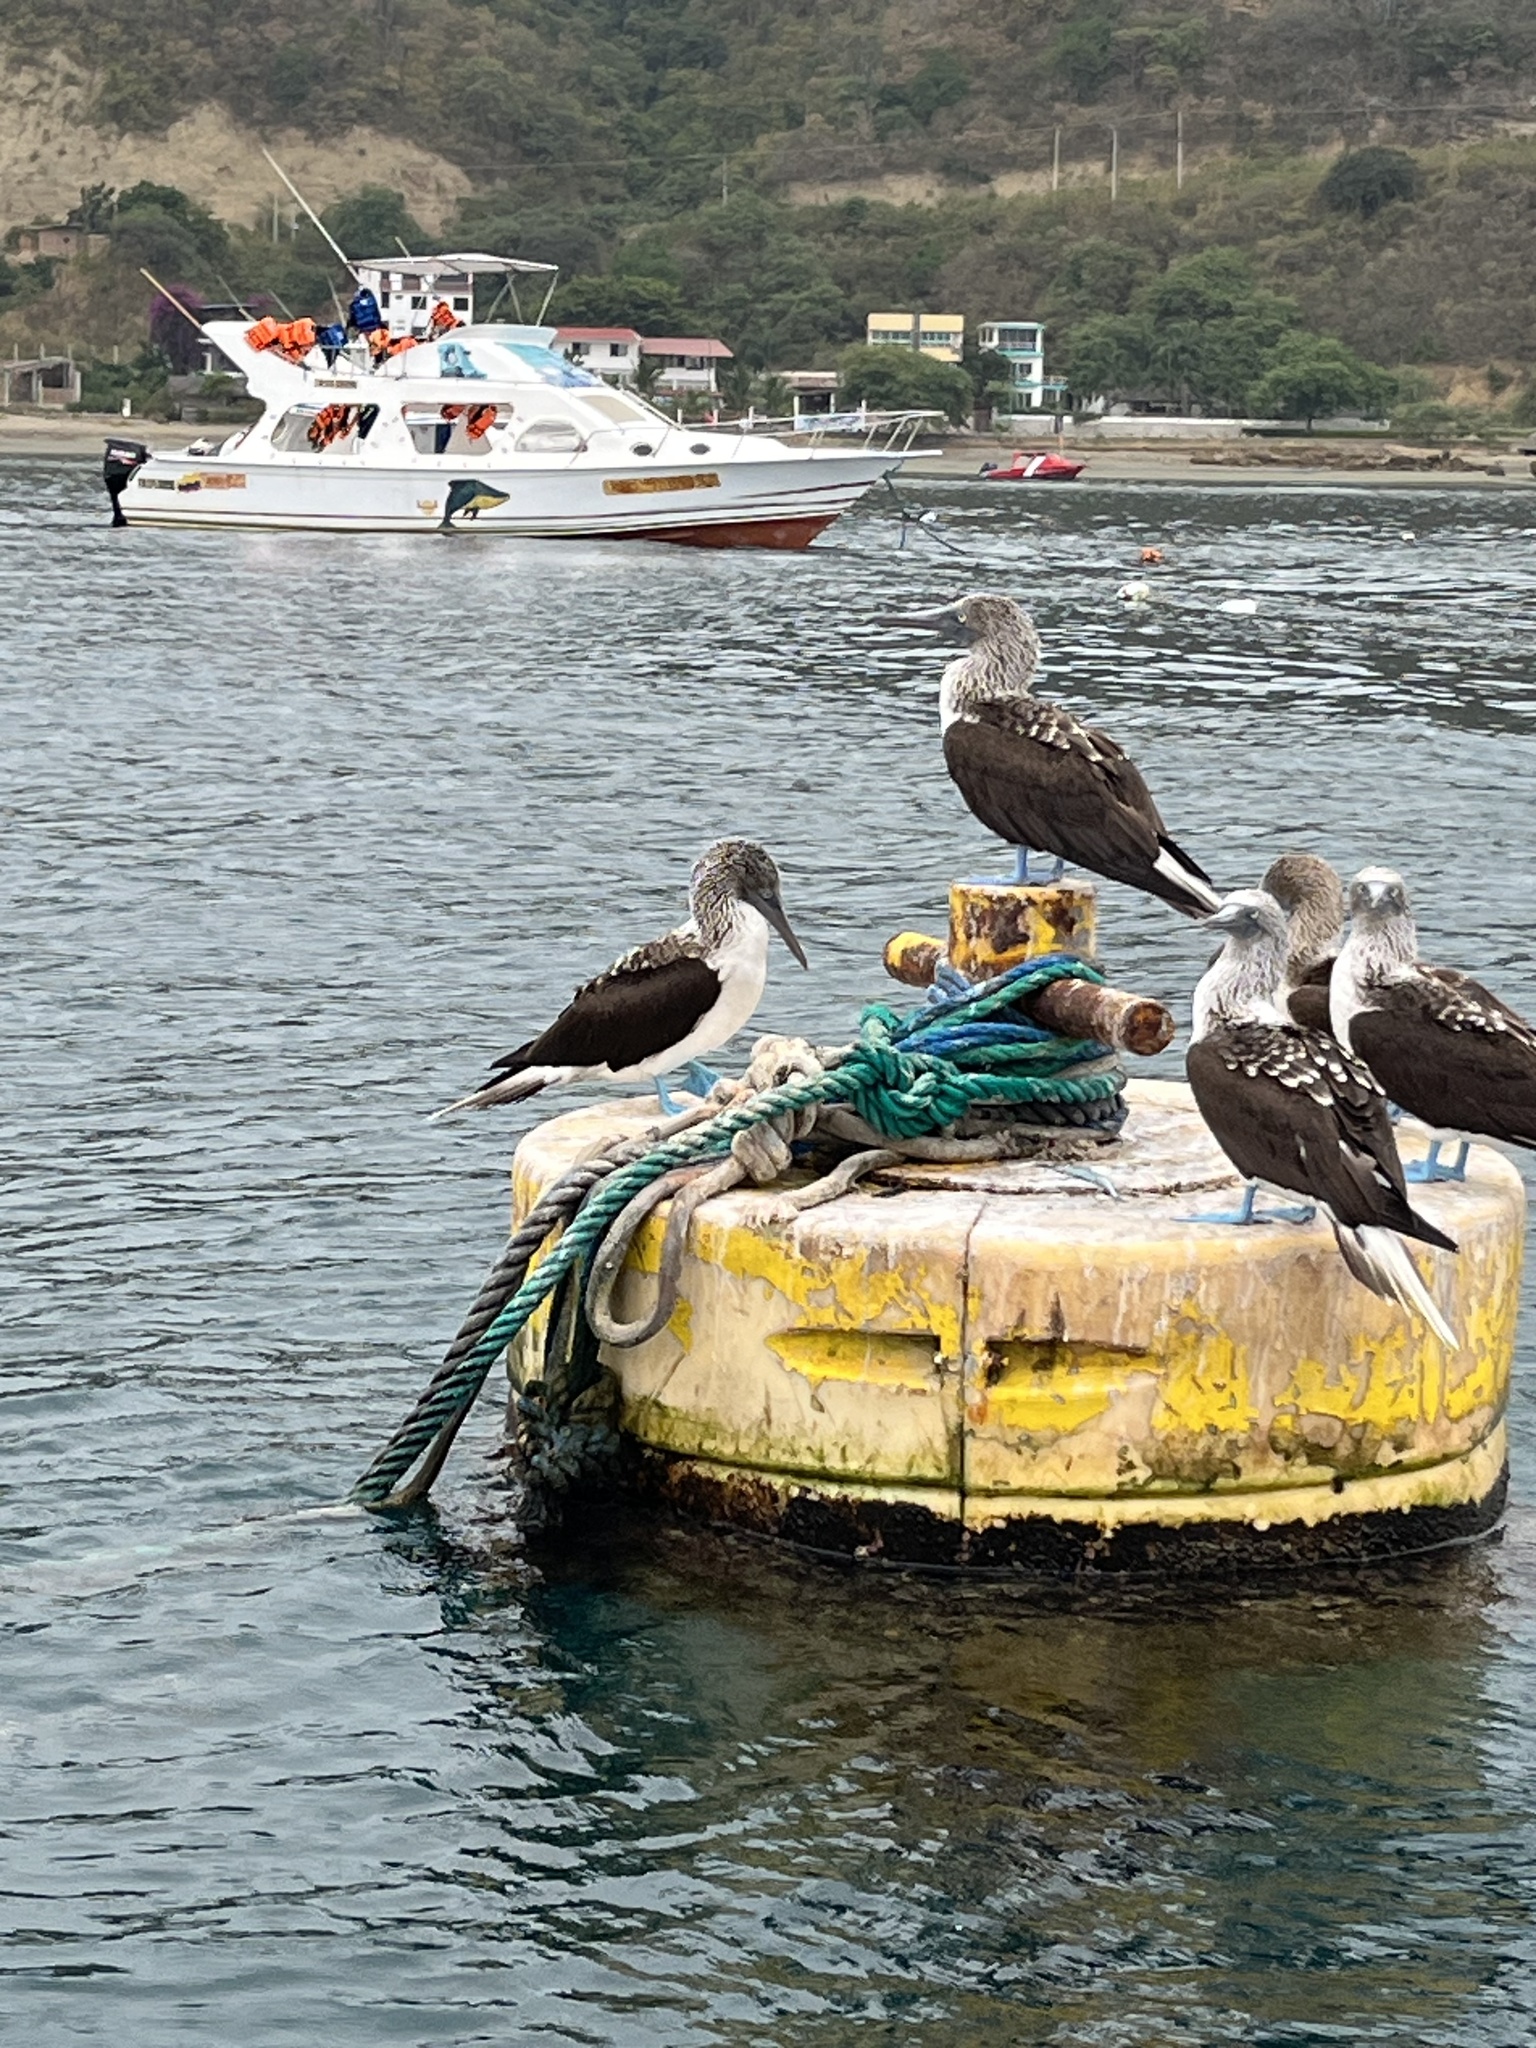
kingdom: Animalia
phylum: Chordata
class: Aves
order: Suliformes
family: Sulidae
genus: Sula
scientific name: Sula nebouxii
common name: Blue-footed booby
